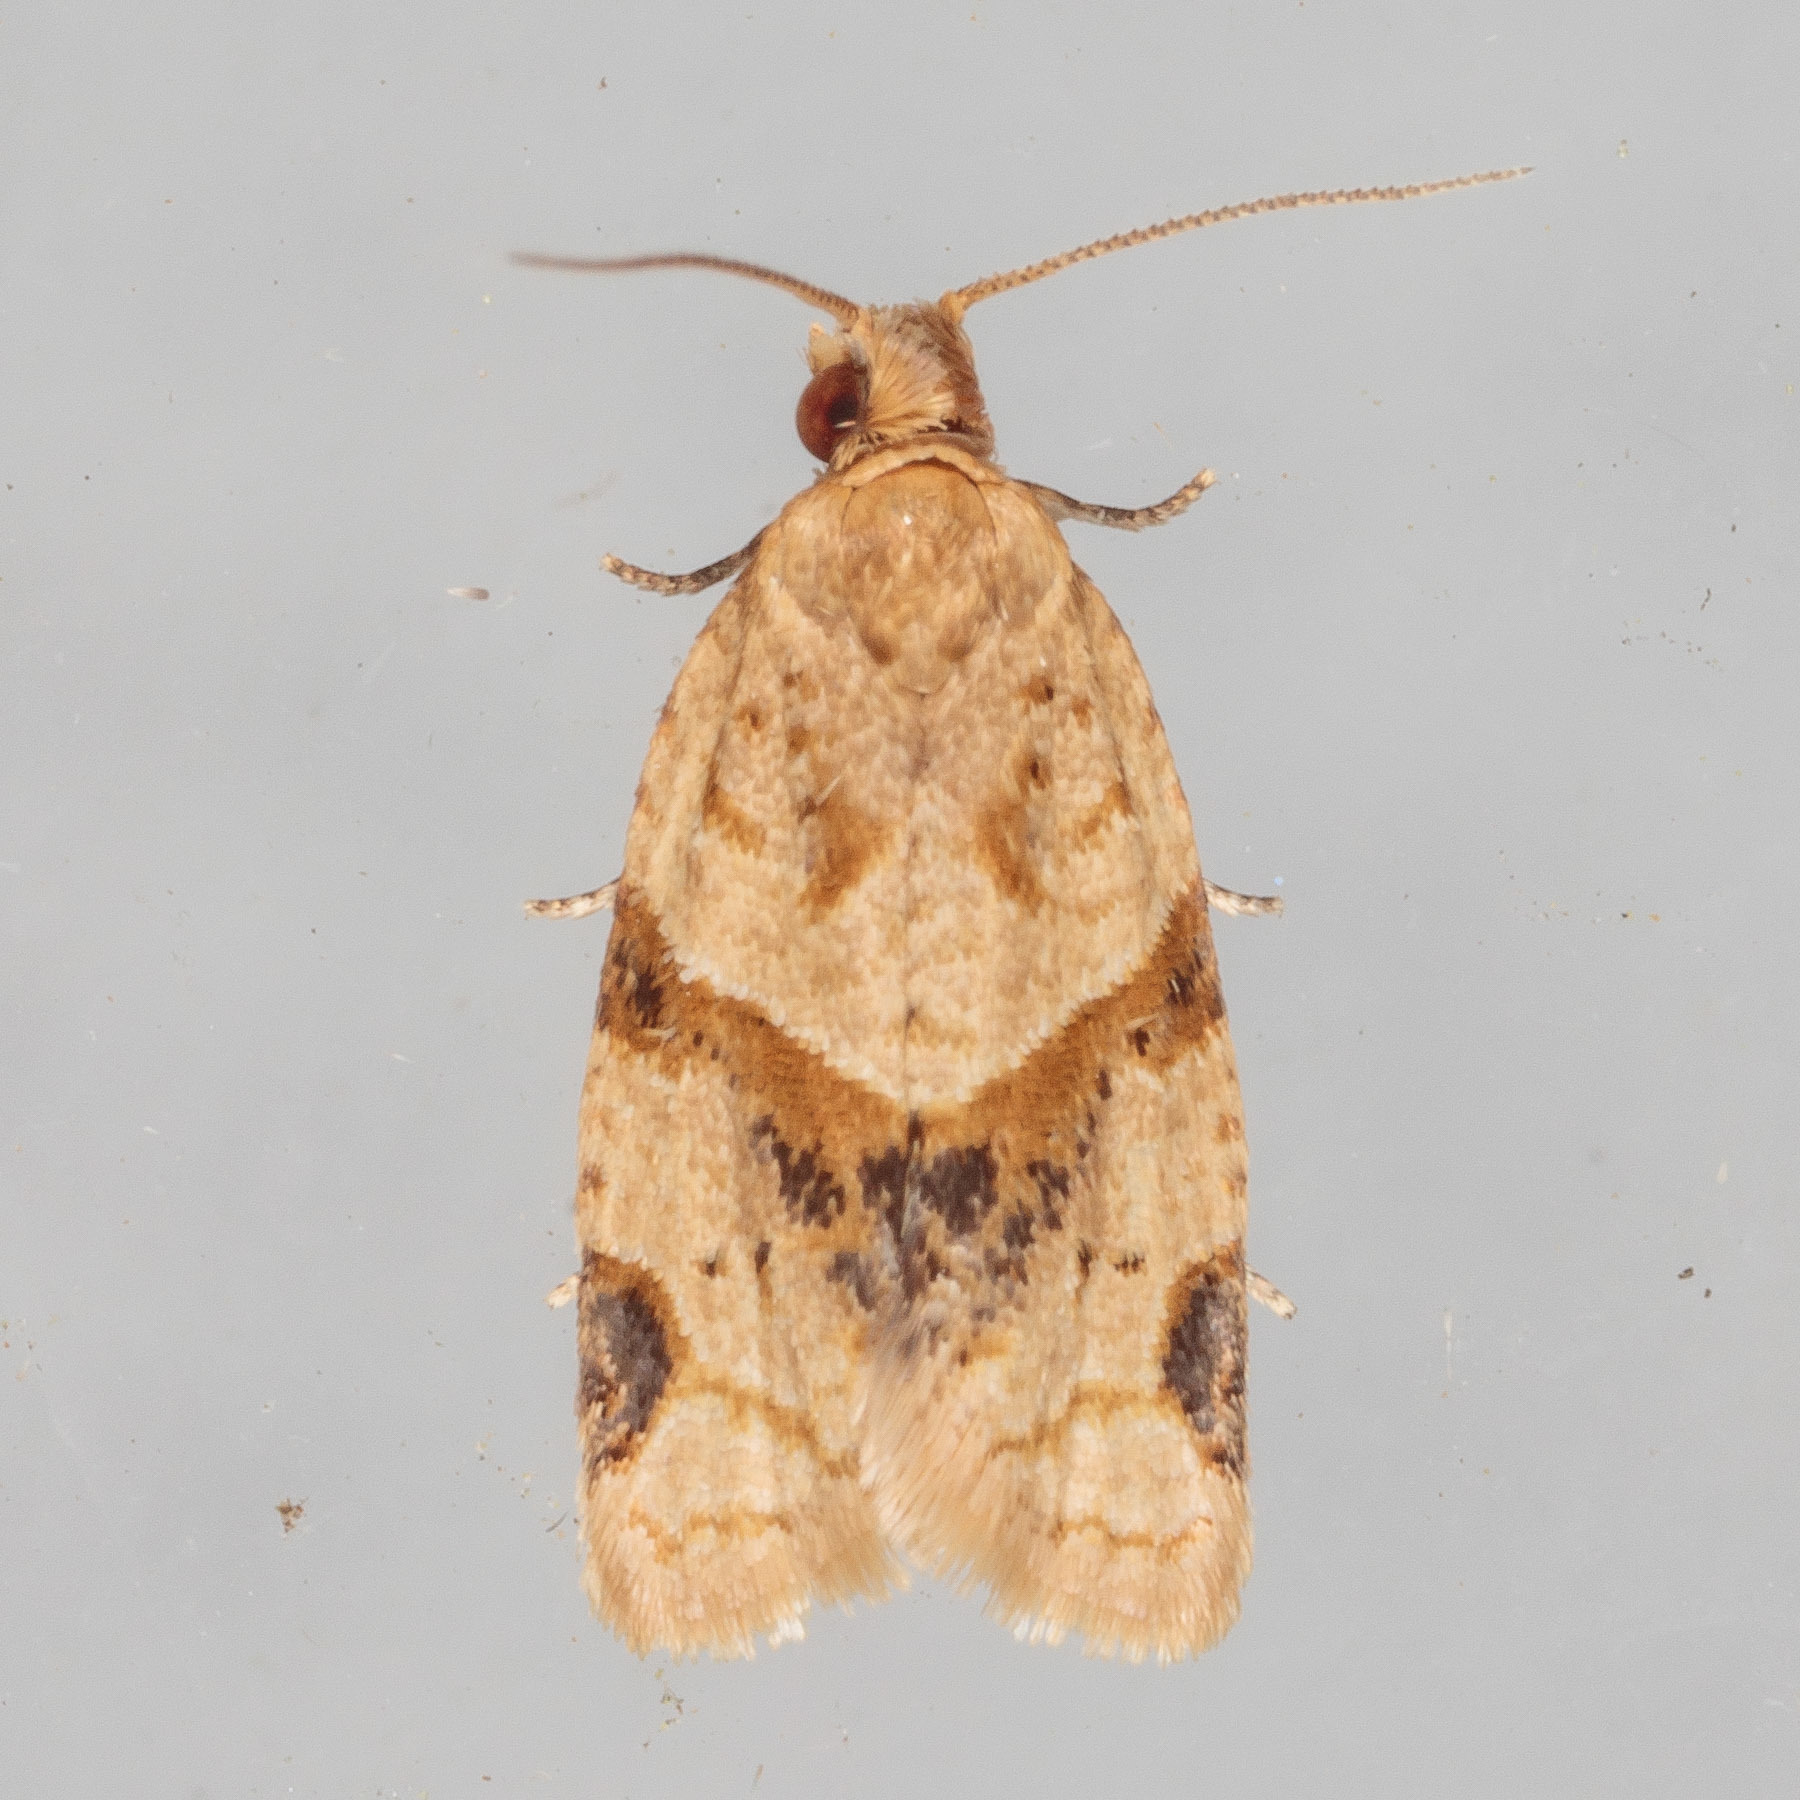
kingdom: Animalia
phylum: Arthropoda
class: Insecta
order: Lepidoptera
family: Tortricidae
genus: Clepsis
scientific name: Clepsis peritana
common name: Garden tortrix
